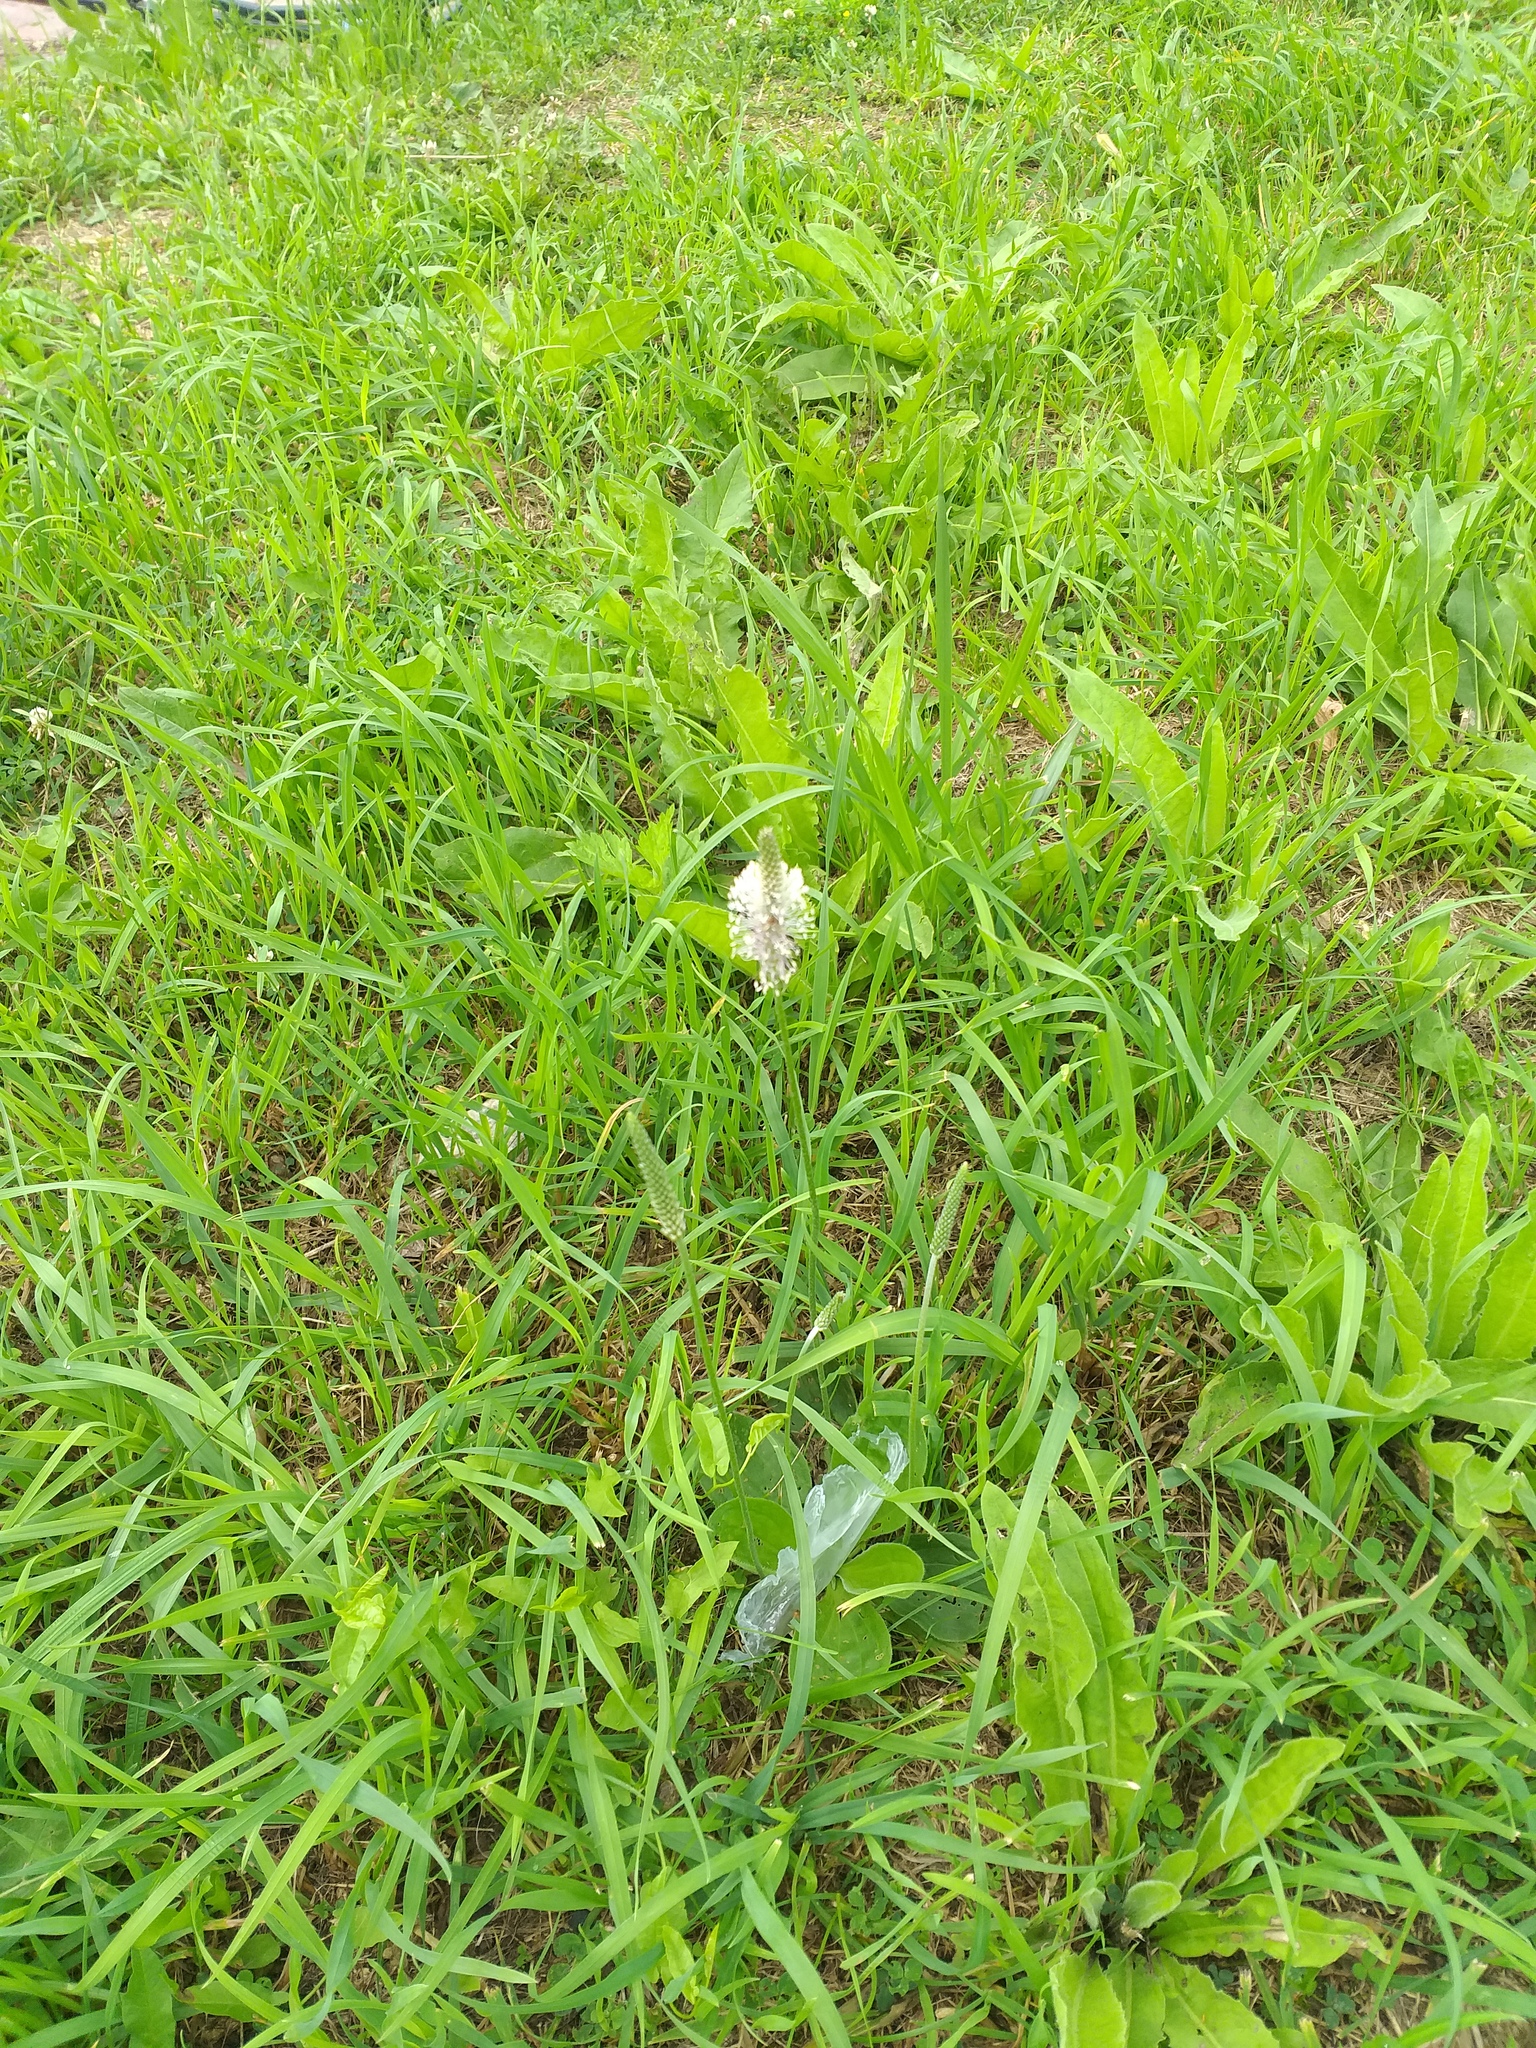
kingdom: Plantae
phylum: Tracheophyta
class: Magnoliopsida
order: Lamiales
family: Plantaginaceae
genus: Plantago
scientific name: Plantago media
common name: Hoary plantain
